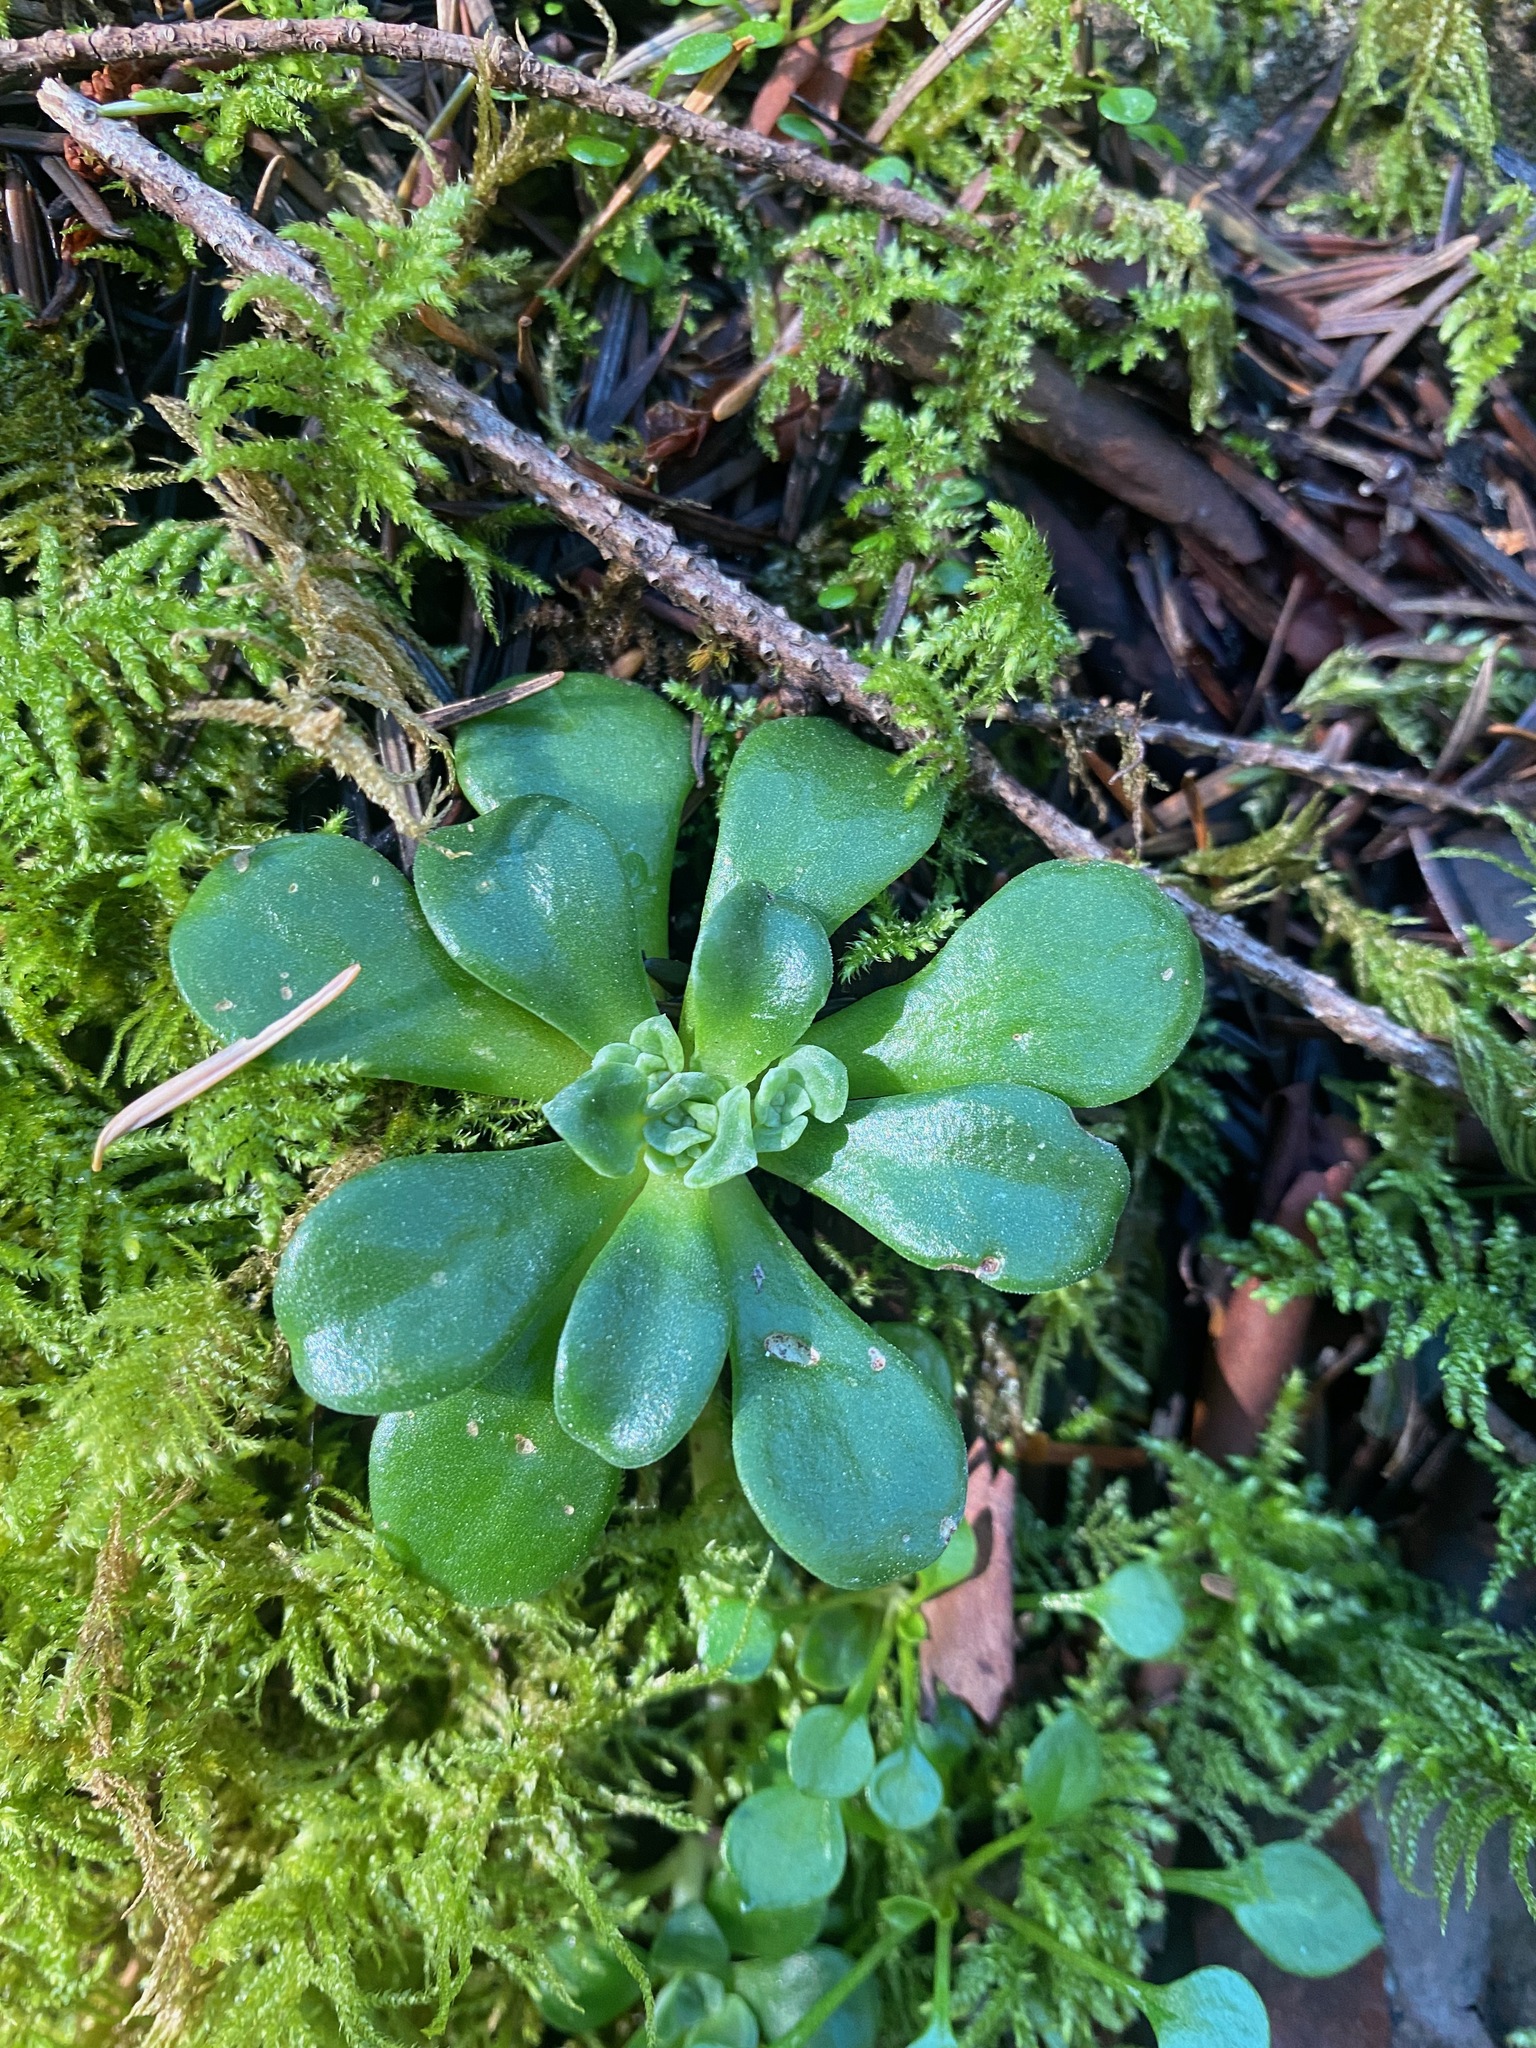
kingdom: Plantae
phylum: Tracheophyta
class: Magnoliopsida
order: Saxifragales
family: Crassulaceae
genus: Sedum
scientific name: Sedum spathulifolium
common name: Colorado stonecrop
